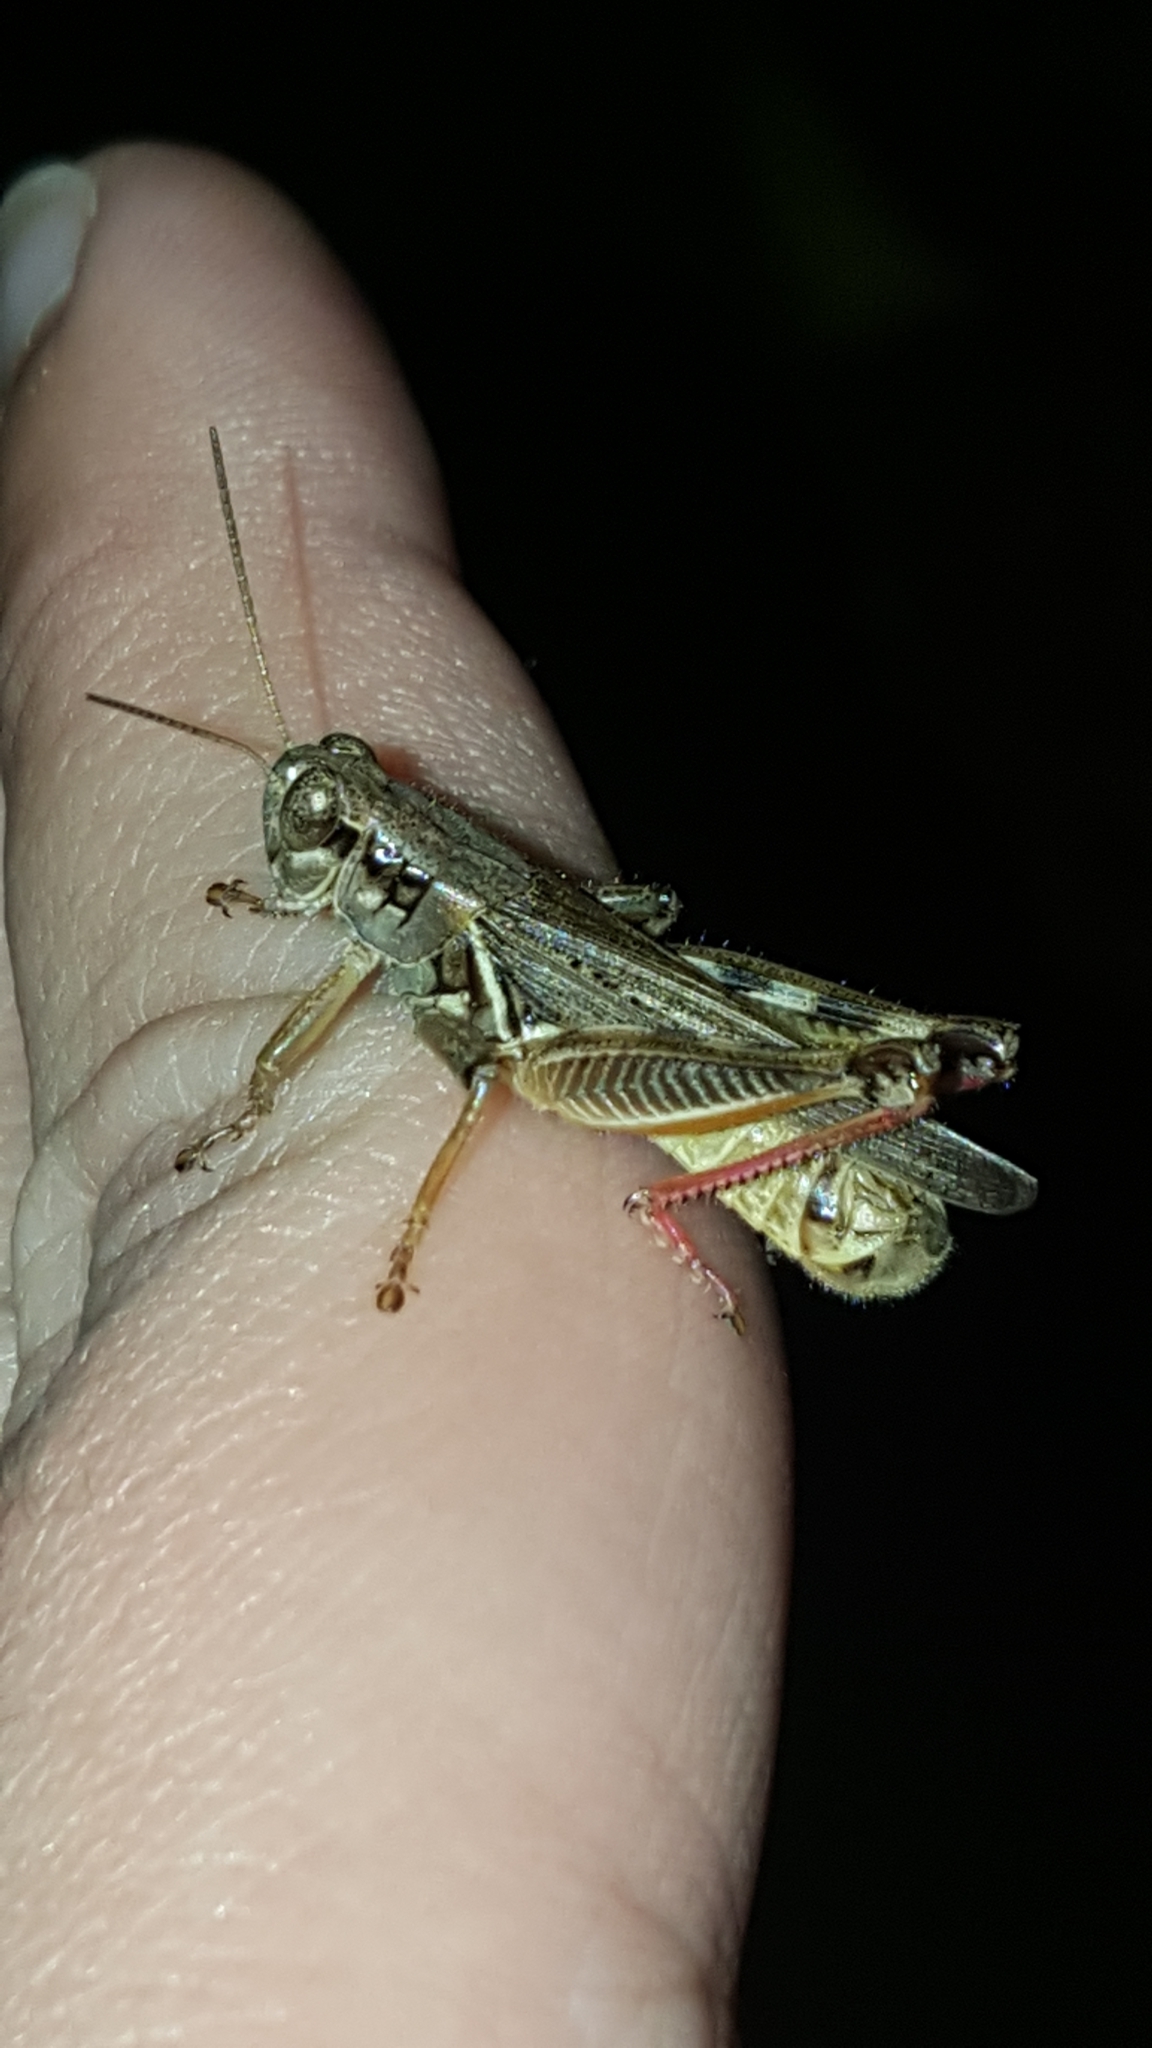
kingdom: Animalia
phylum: Arthropoda
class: Insecta
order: Orthoptera
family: Acrididae
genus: Melanoplus
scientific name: Melanoplus femurrubrum
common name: Red-legged grasshopper
